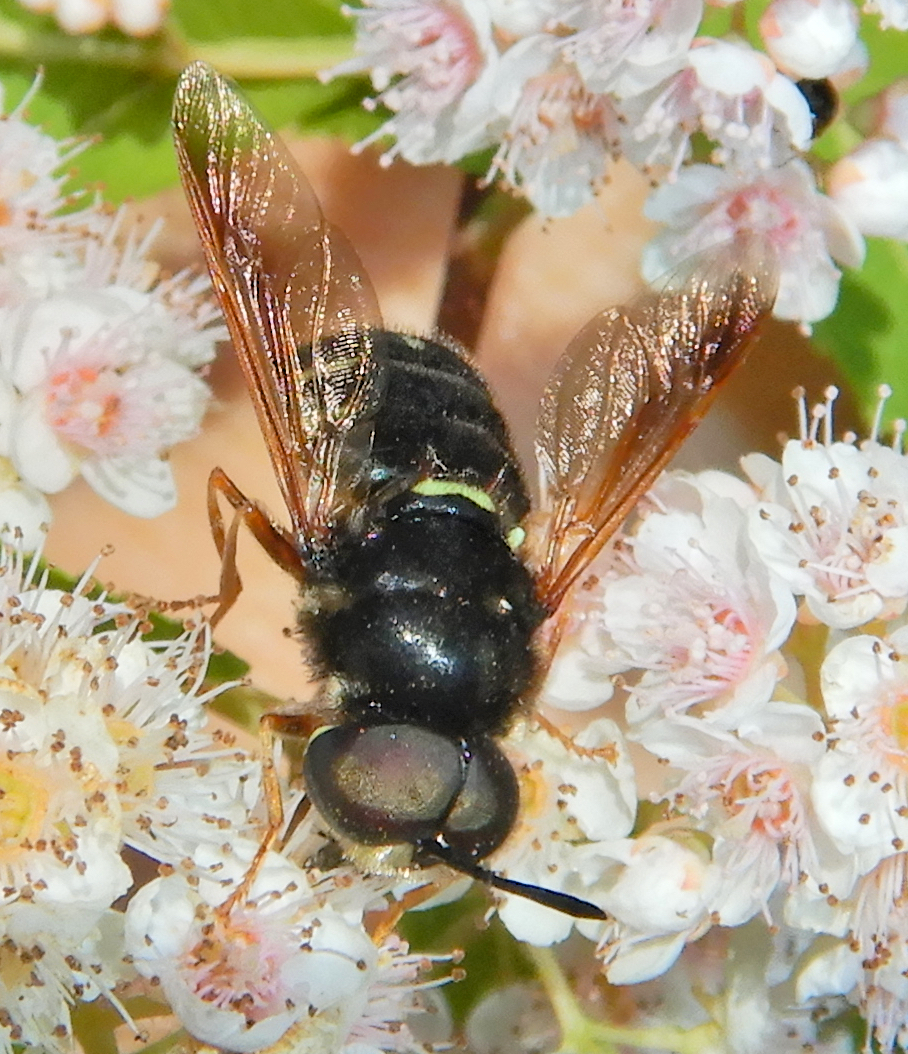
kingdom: Animalia
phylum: Arthropoda
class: Insecta
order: Diptera
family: Stratiomyidae
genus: Stratiomys
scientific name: Stratiomys badia
